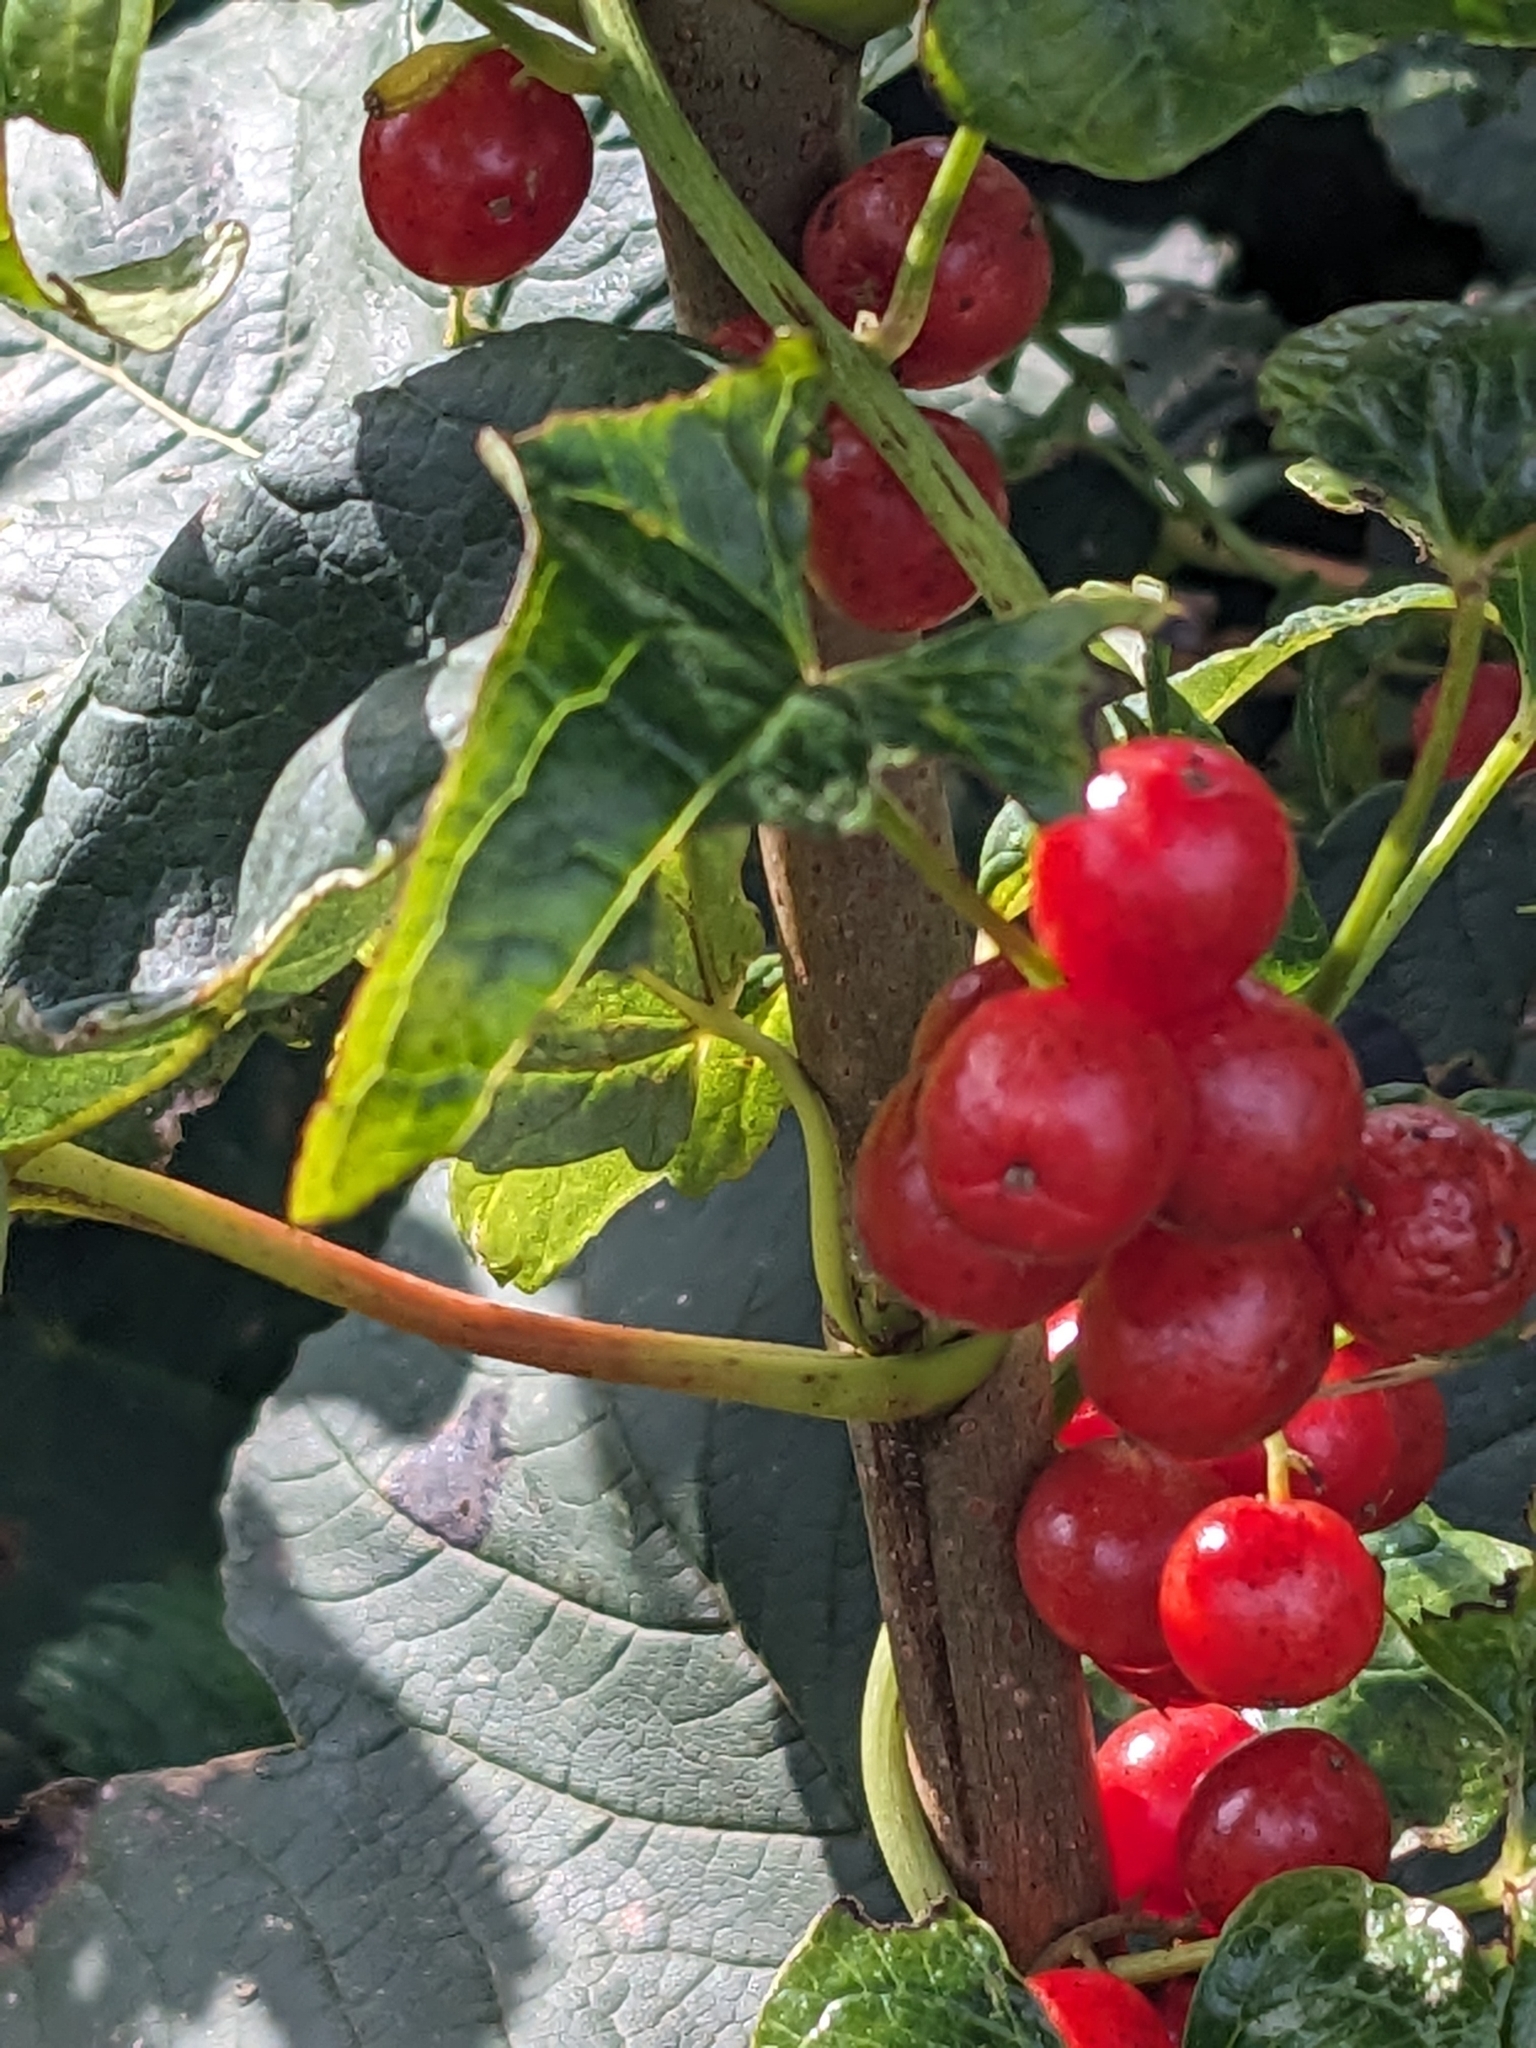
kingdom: Plantae
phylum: Tracheophyta
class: Liliopsida
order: Dioscoreales
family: Dioscoreaceae
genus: Dioscorea
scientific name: Dioscorea communis
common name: Black-bindweed
